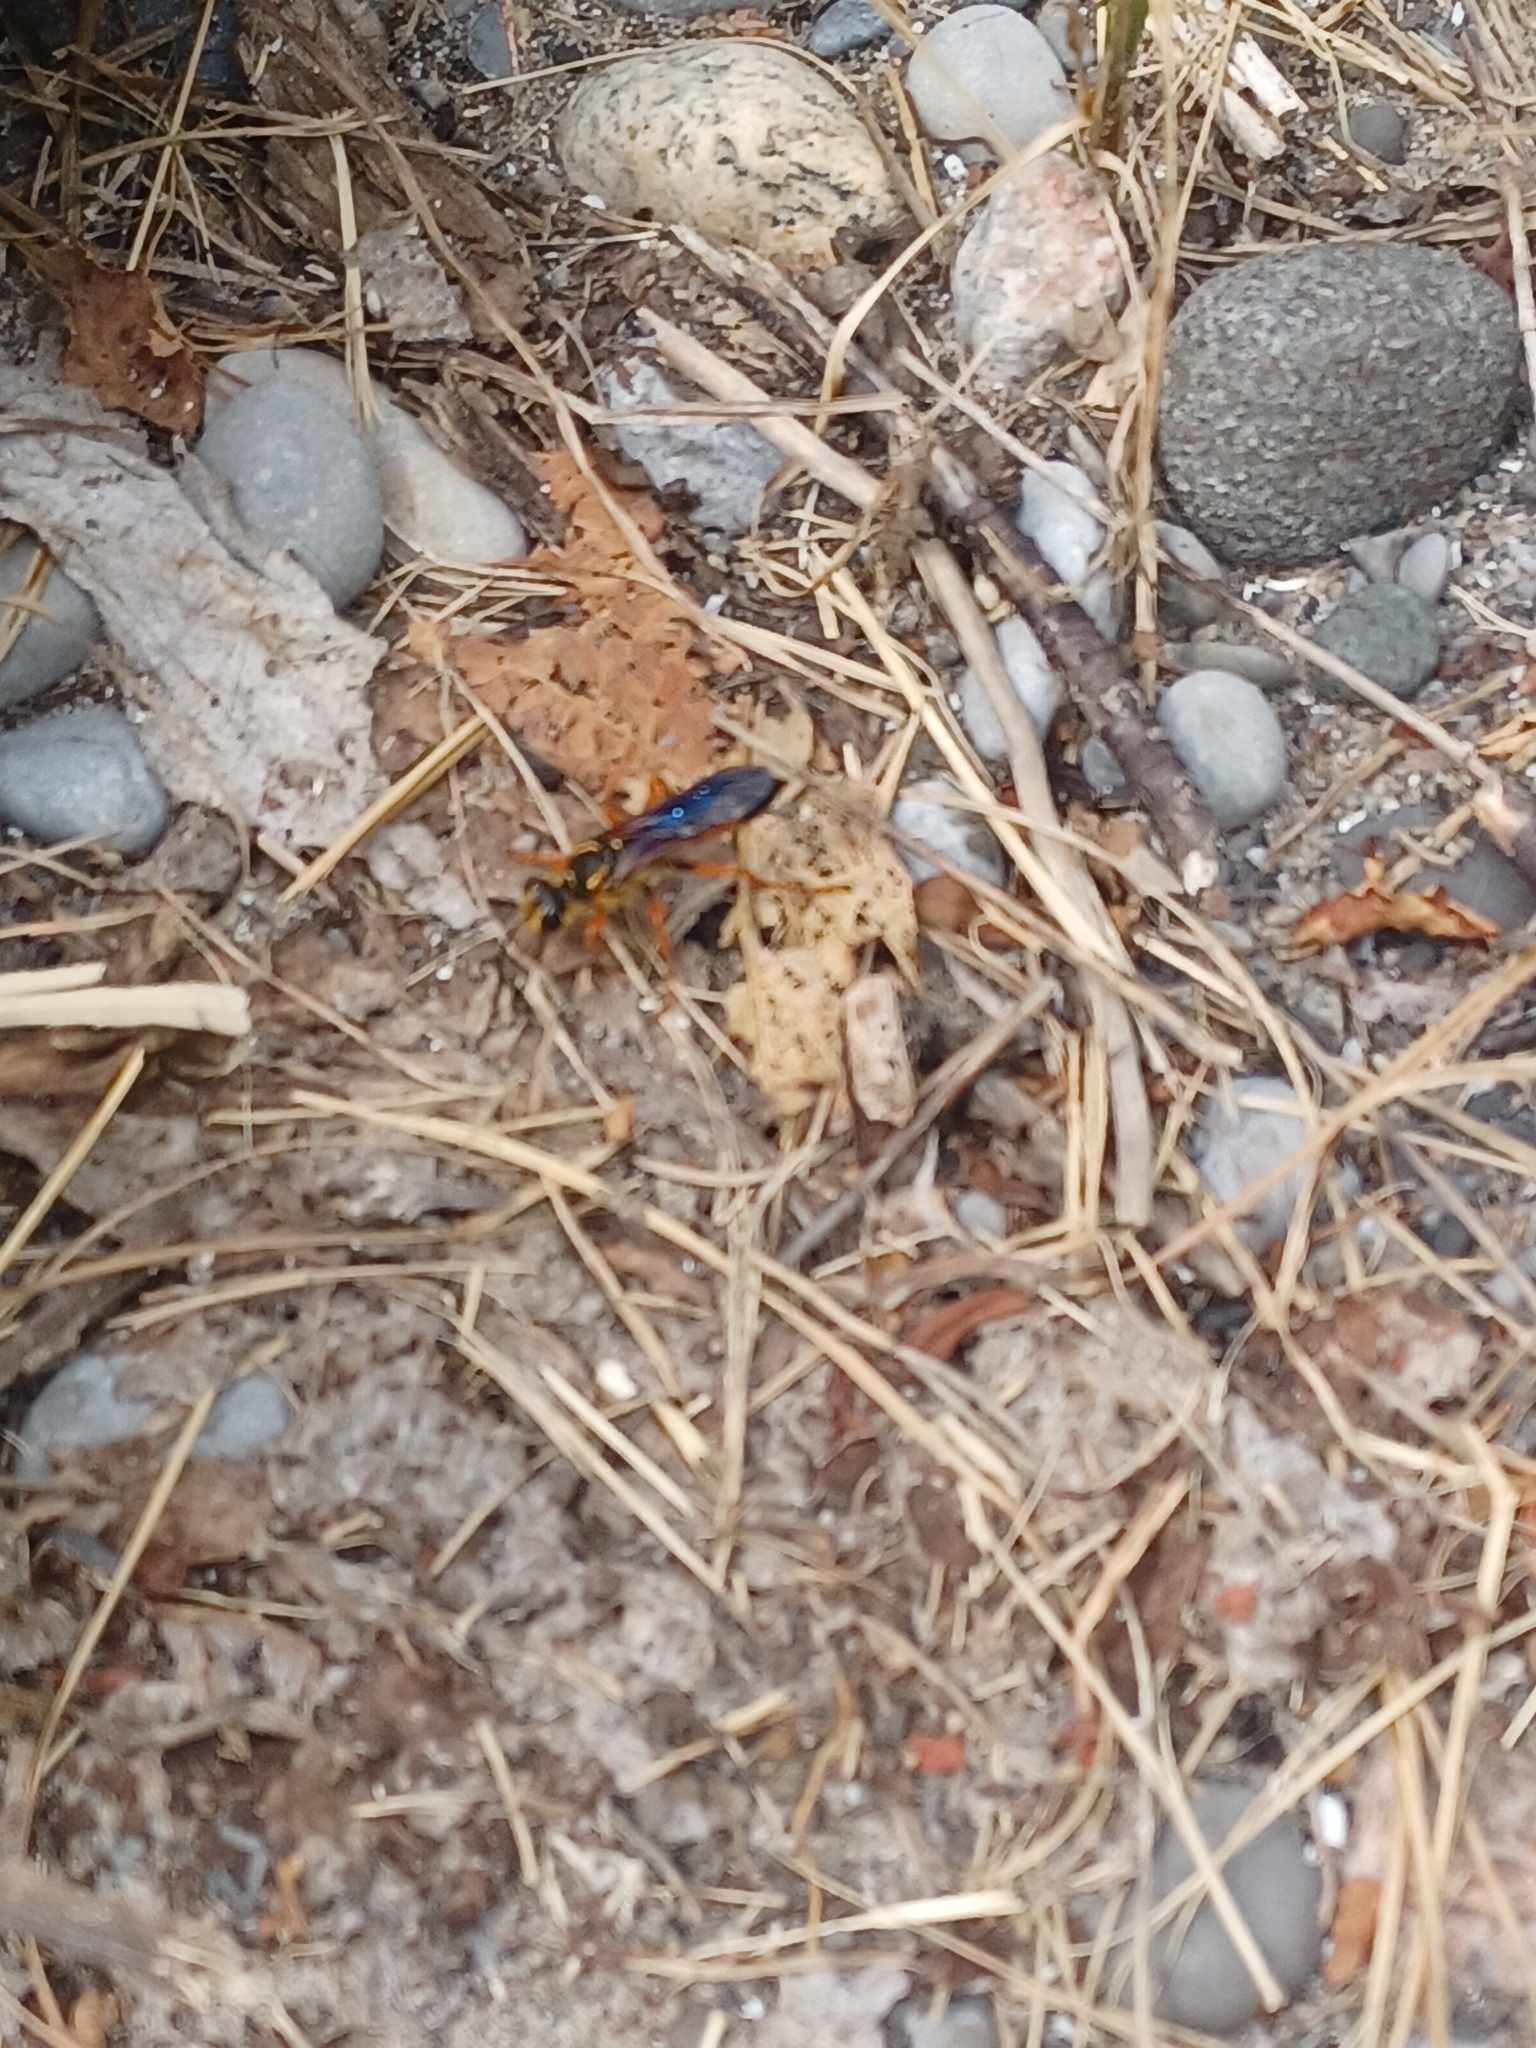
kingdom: Animalia
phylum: Arthropoda
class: Insecta
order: Hymenoptera
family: Sphecidae
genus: Sphex
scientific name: Sphex ichneumoneus
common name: Great golden digger wasp
